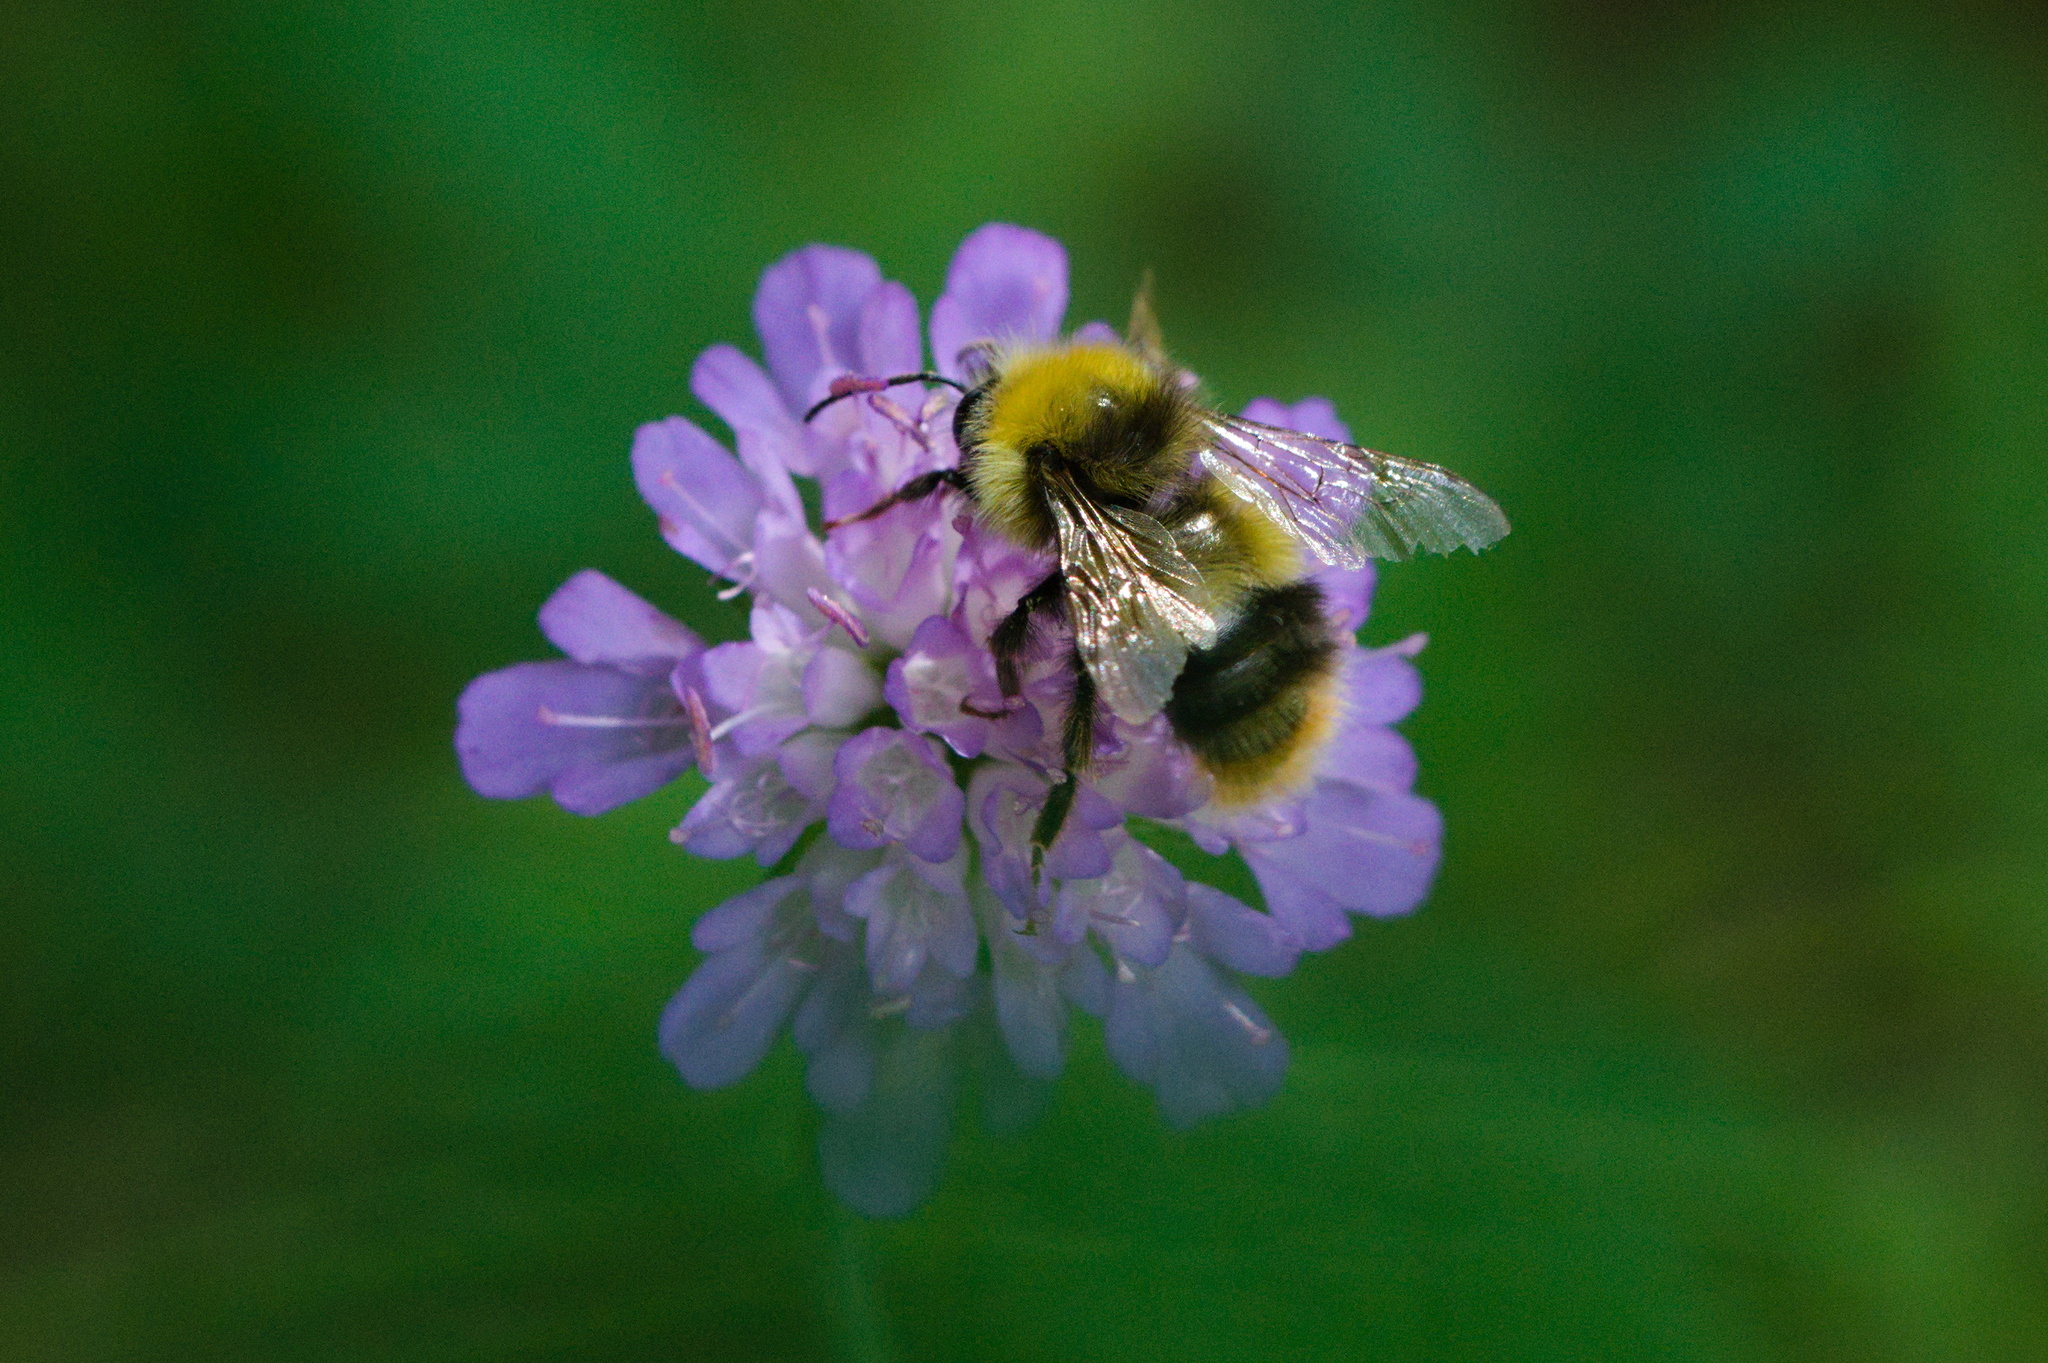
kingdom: Animalia
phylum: Arthropoda
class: Insecta
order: Hymenoptera
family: Apidae
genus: Bombus
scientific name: Bombus pratorum
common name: Early humble-bee
